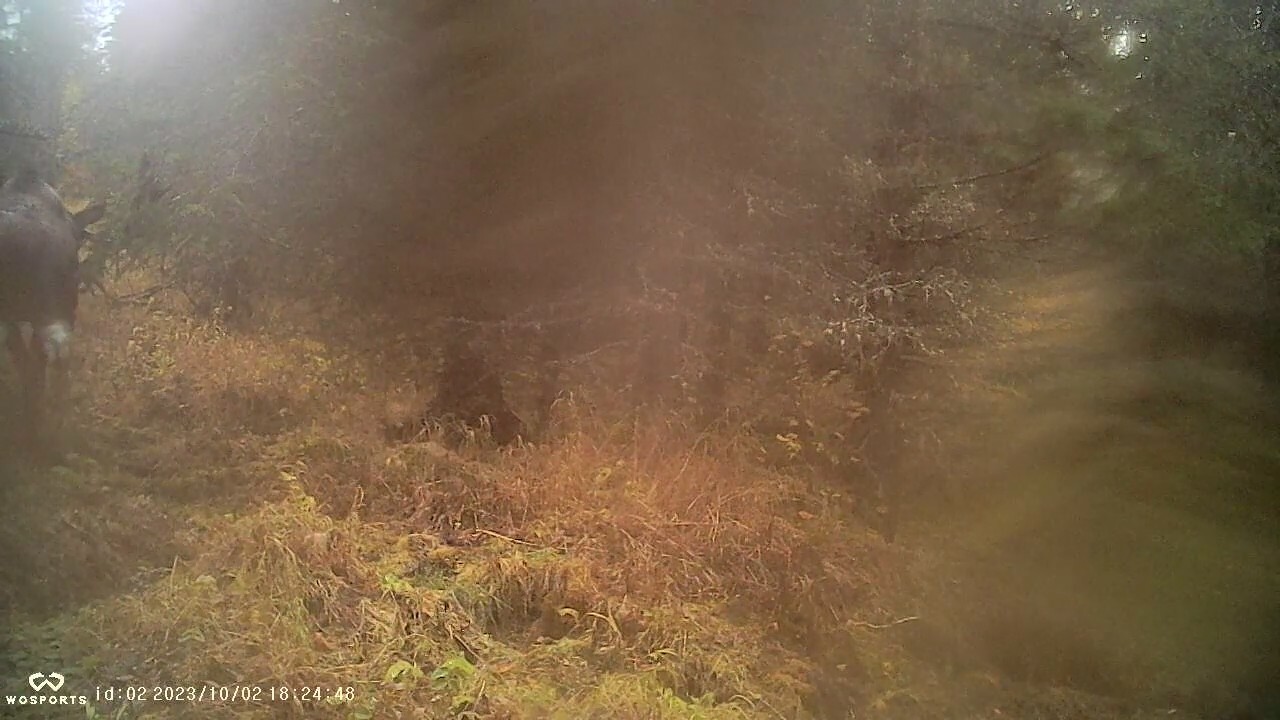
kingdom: Animalia
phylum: Chordata
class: Mammalia
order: Artiodactyla
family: Cervidae
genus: Alces
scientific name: Alces alces
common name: Moose
